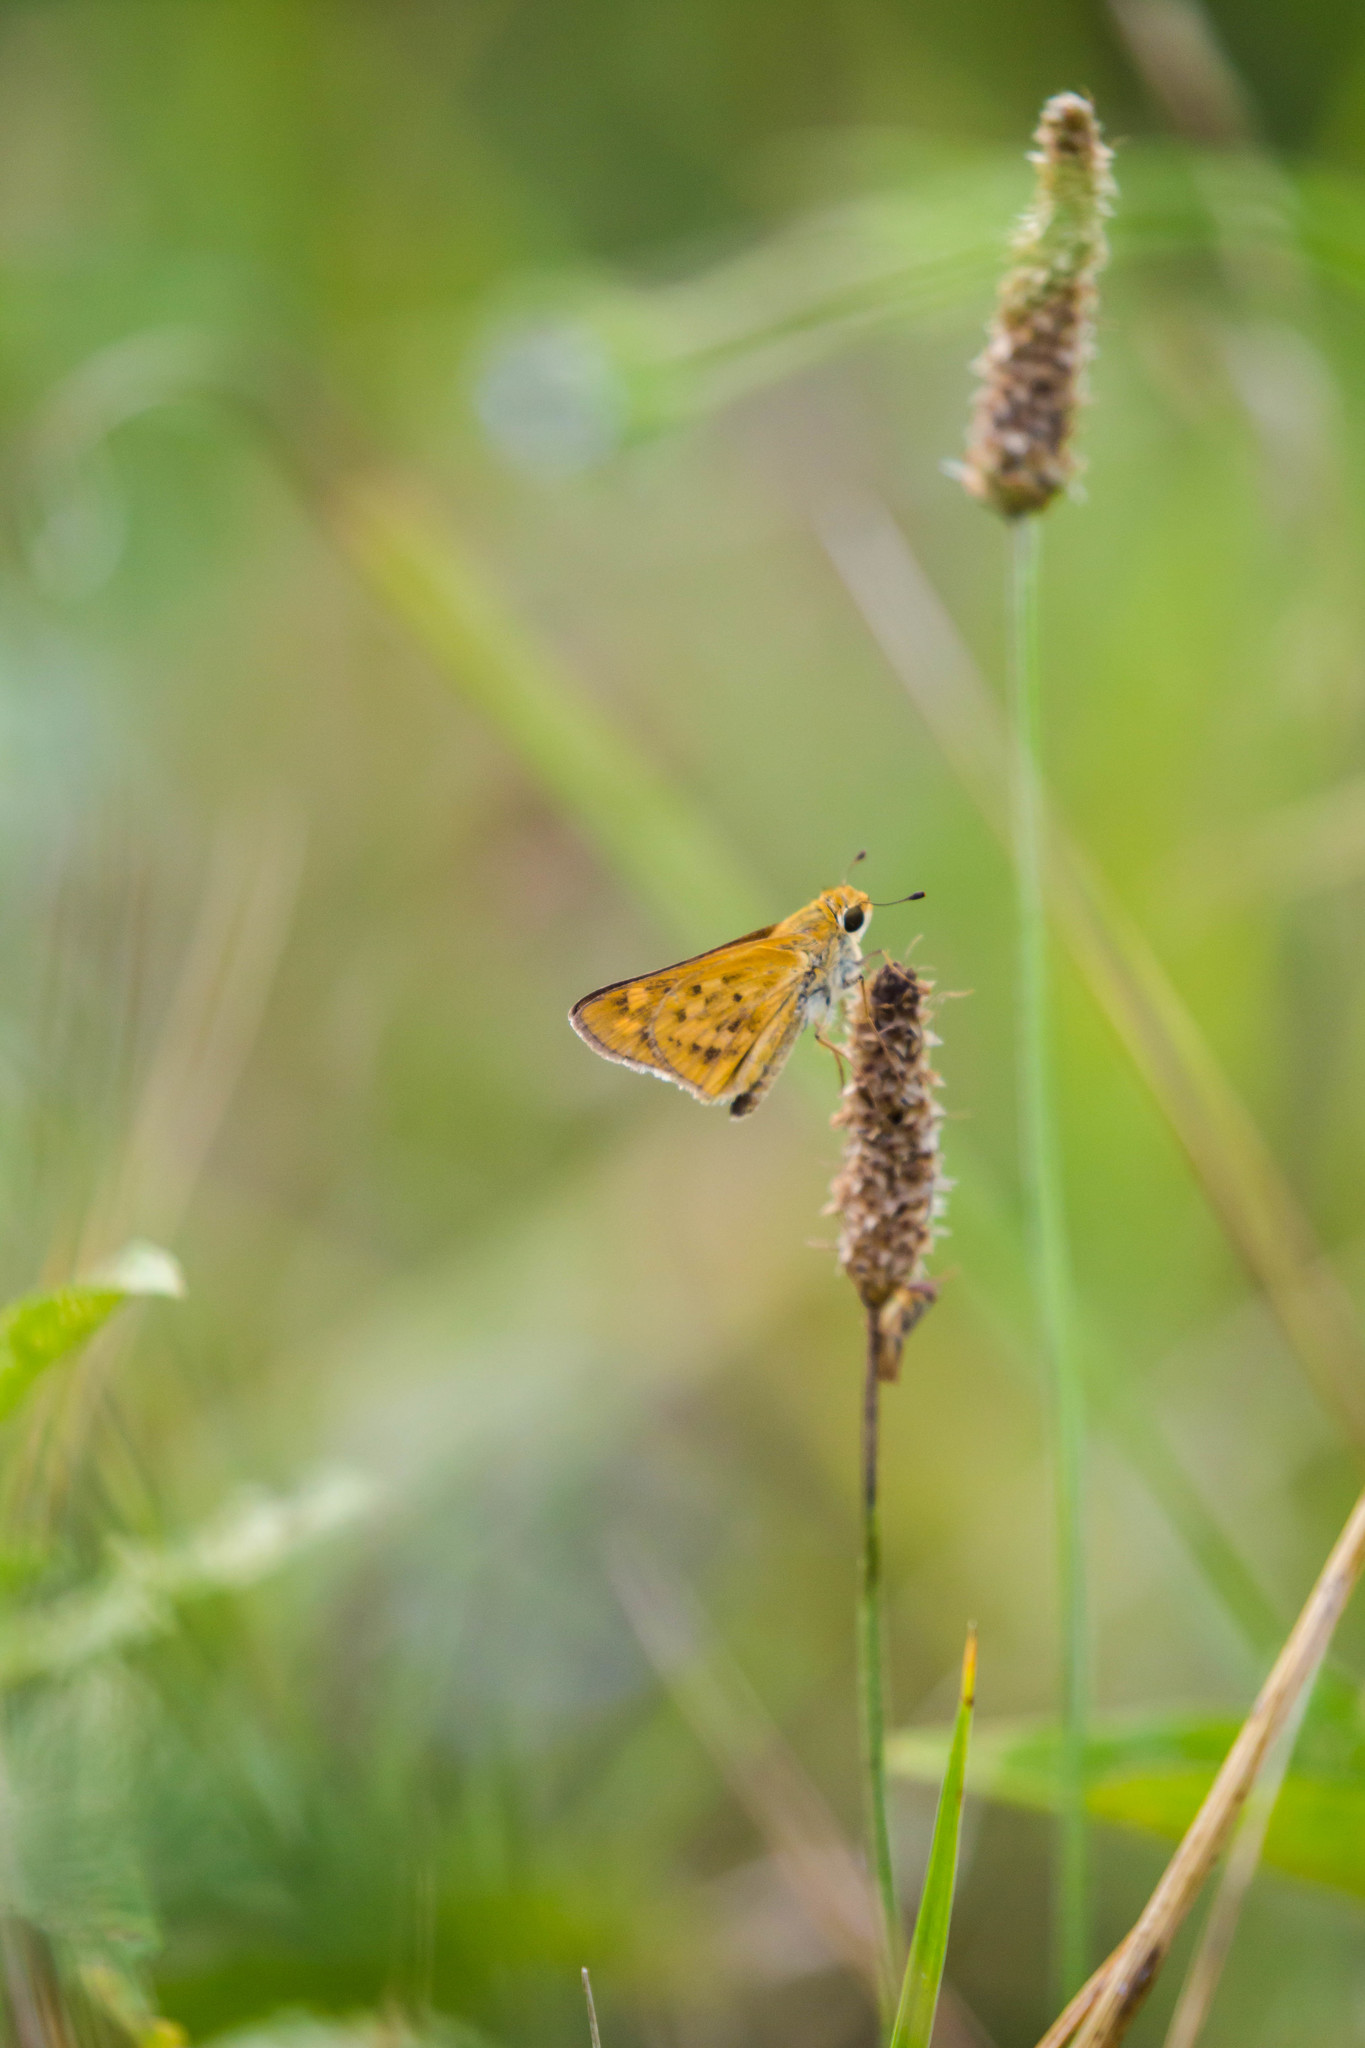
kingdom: Animalia
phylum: Arthropoda
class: Insecta
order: Lepidoptera
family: Hesperiidae
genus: Hylephila
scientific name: Hylephila phyleus
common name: Fiery skipper
